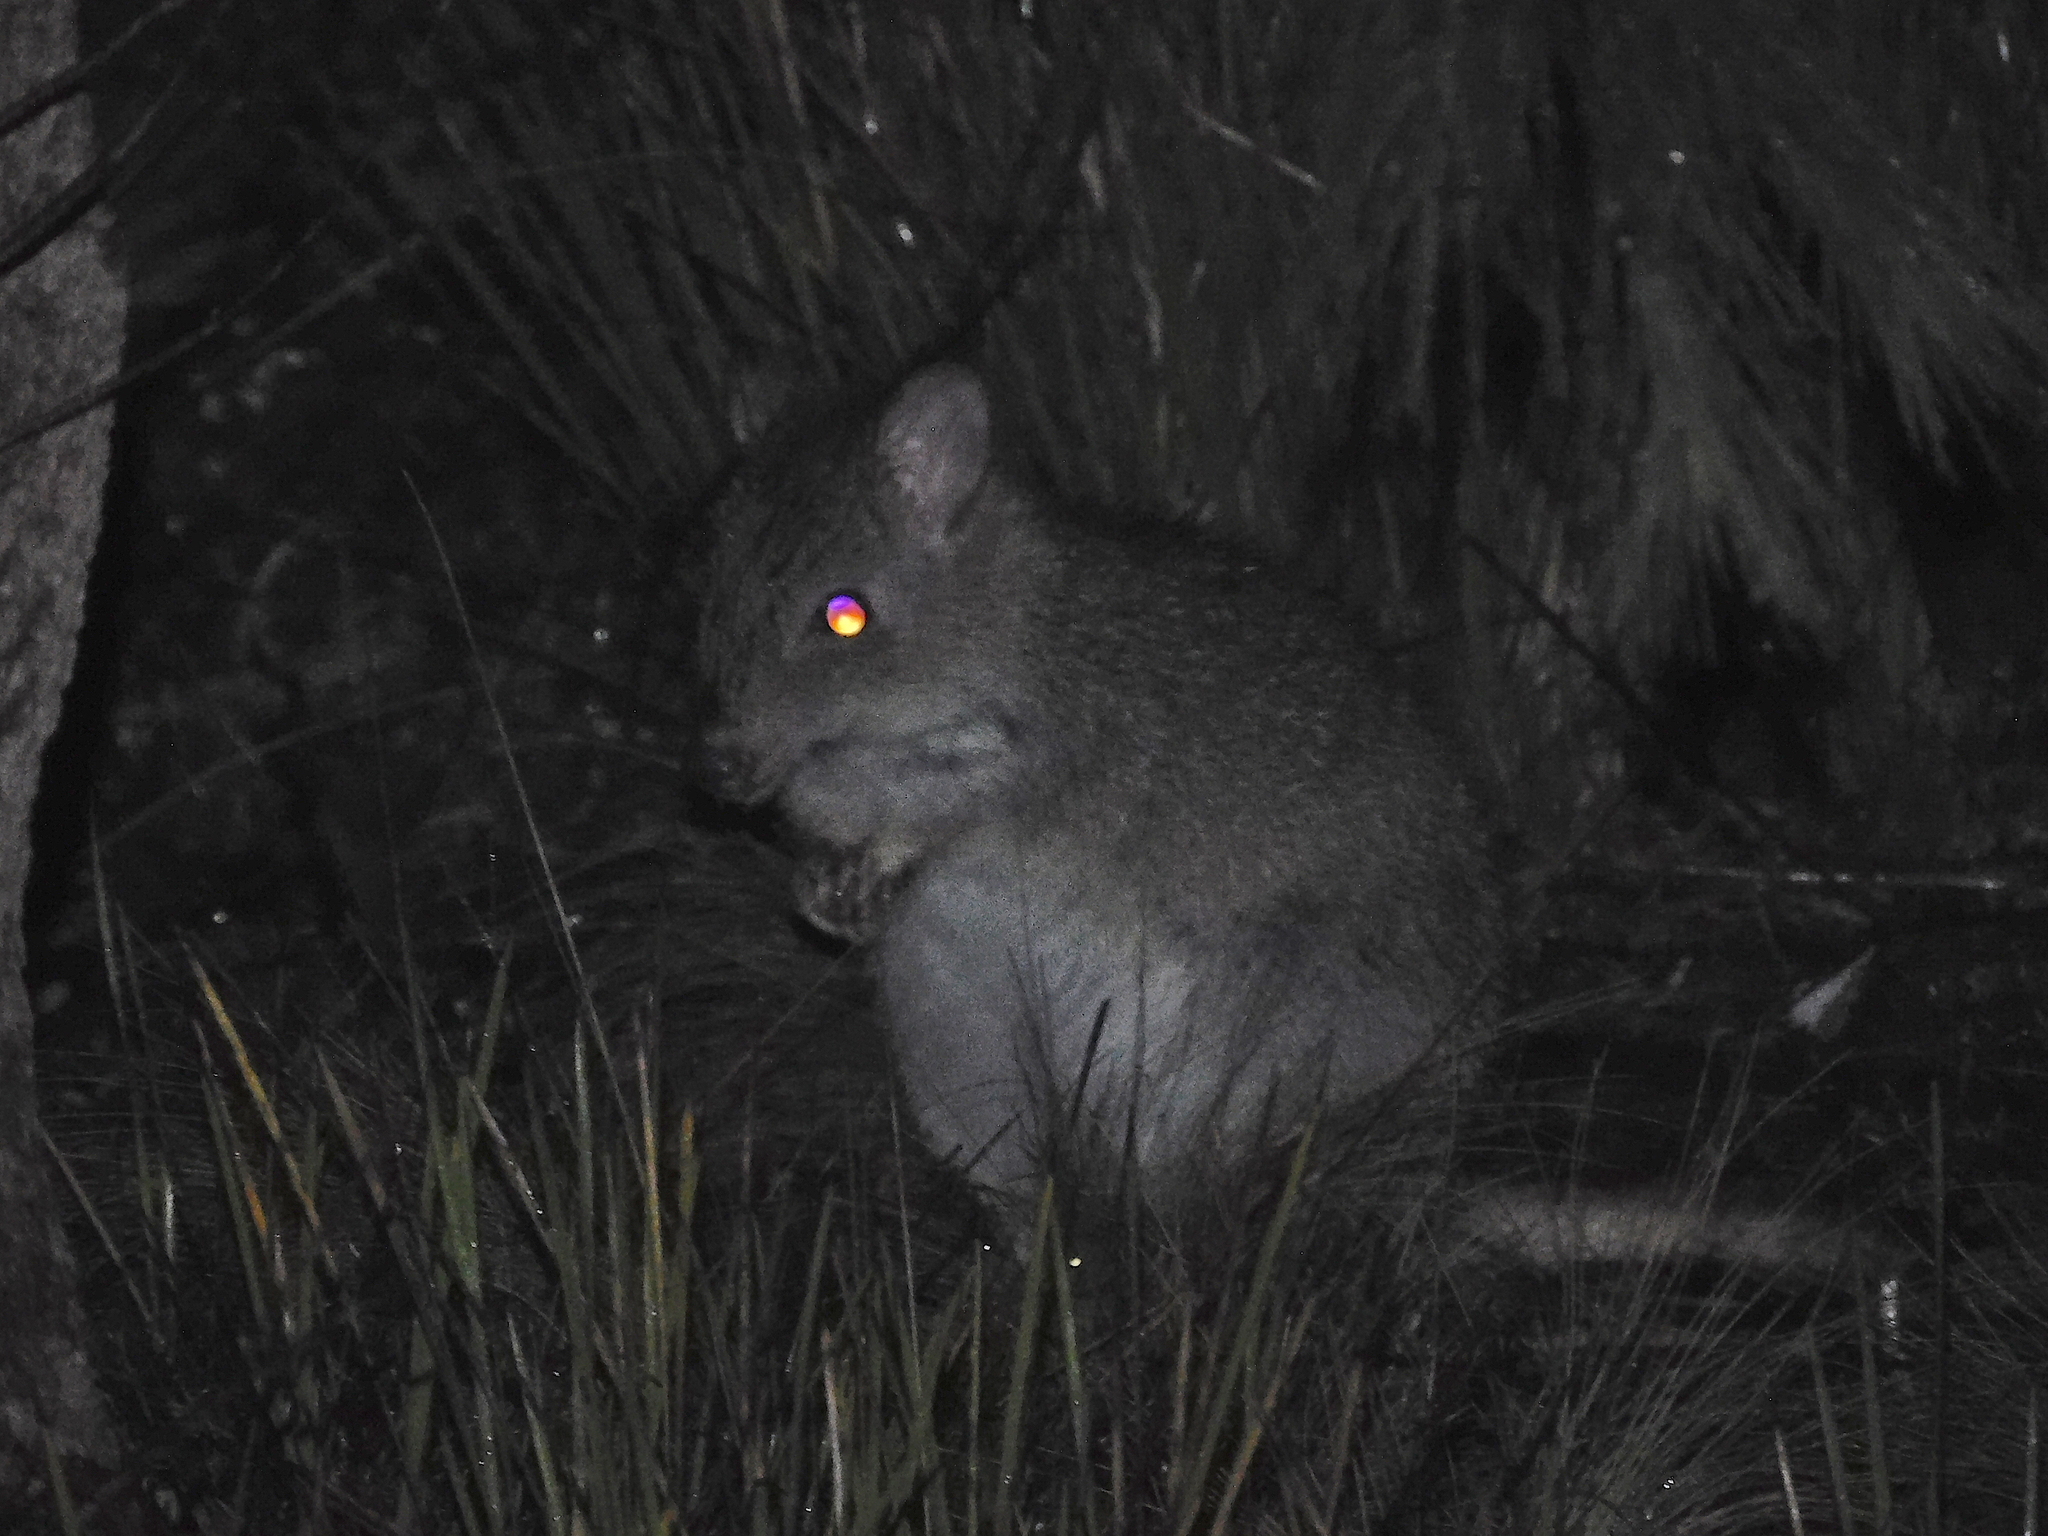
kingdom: Animalia
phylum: Chordata
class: Mammalia
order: Diprotodontia
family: Potoroidae
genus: Bettongia
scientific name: Bettongia gaimardi
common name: Eastern bettong
